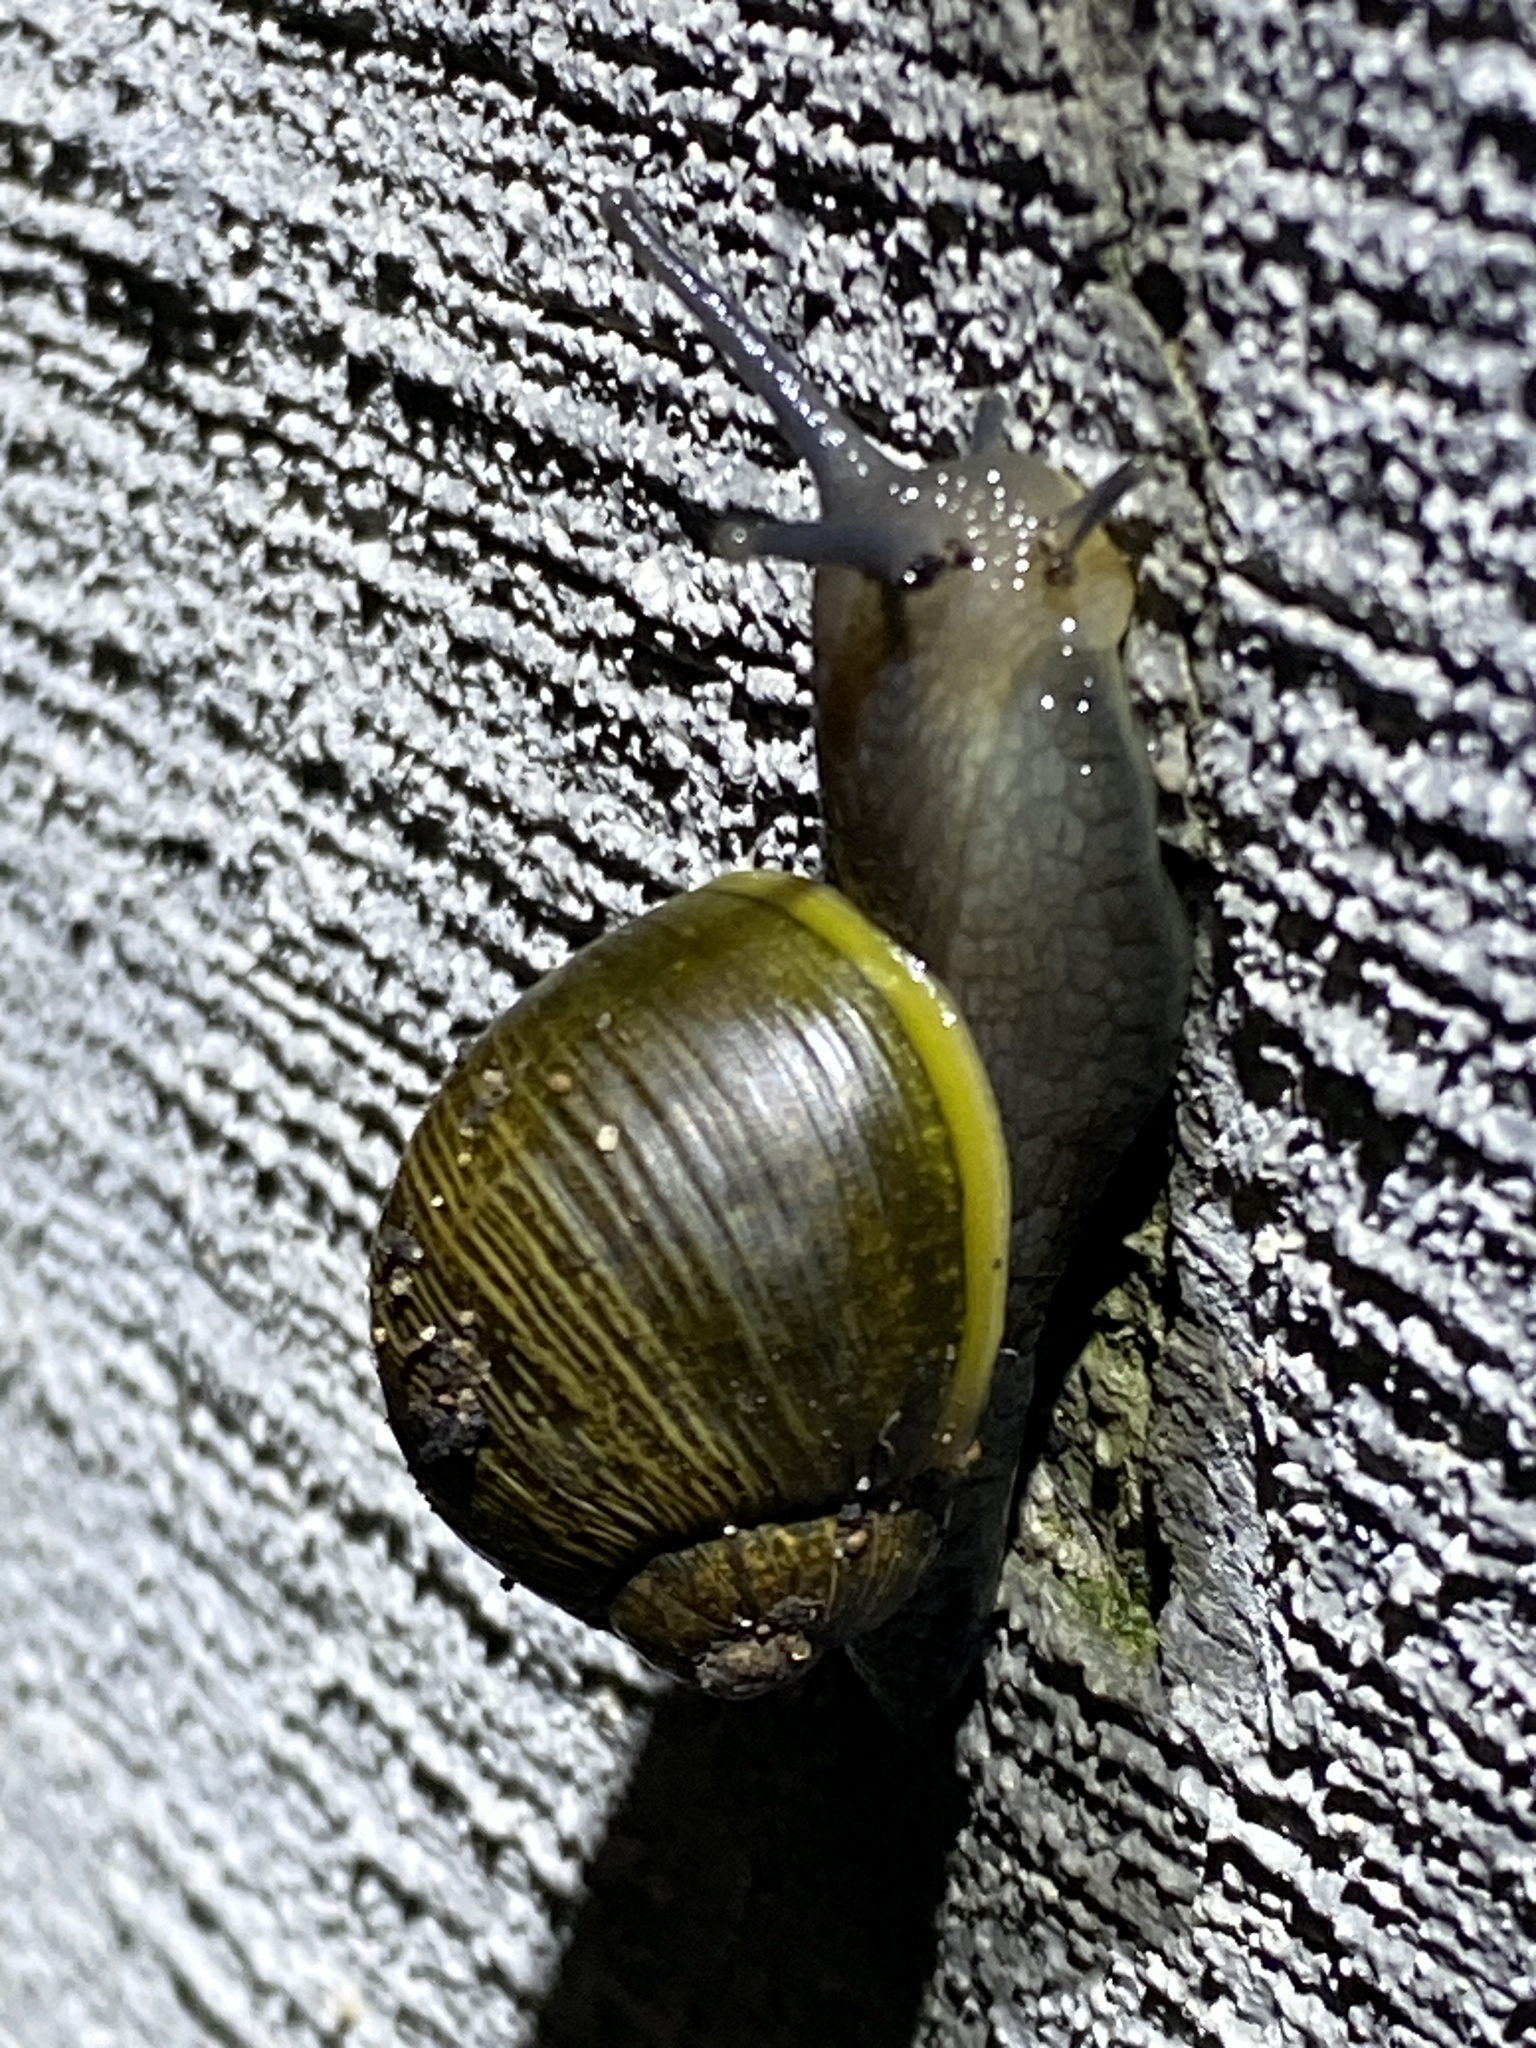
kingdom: Animalia
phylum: Mollusca
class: Gastropoda
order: Stylommatophora
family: Helicidae
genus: Cantareus
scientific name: Cantareus apertus
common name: Green gardensnail
